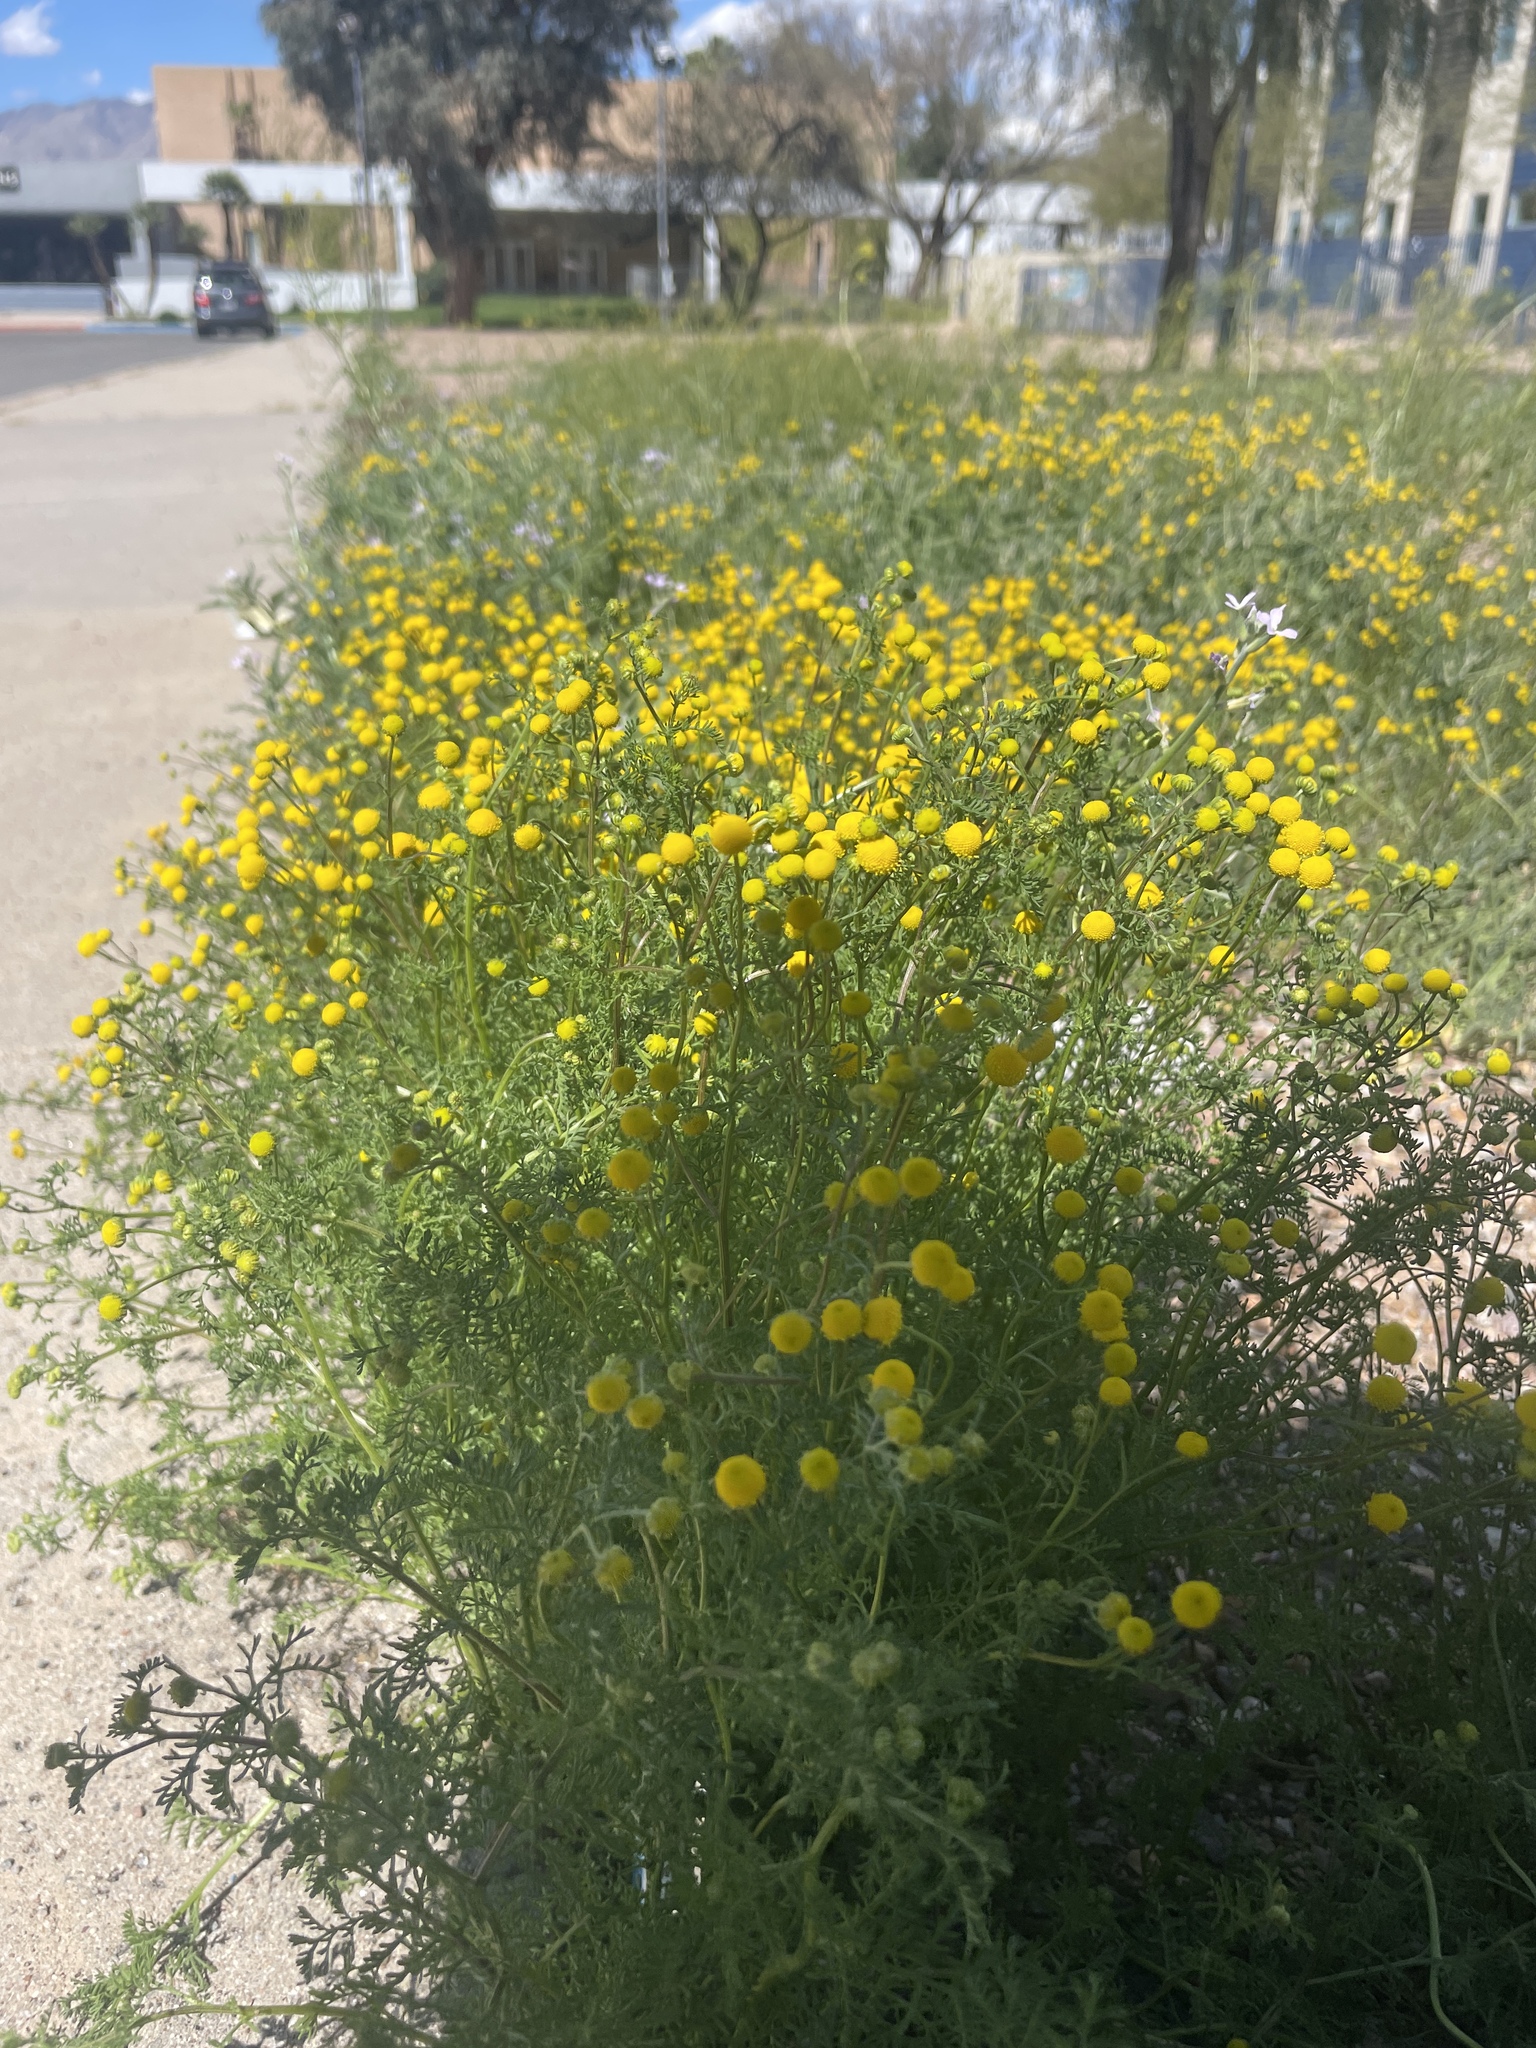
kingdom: Plantae
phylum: Tracheophyta
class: Magnoliopsida
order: Asterales
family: Asteraceae
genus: Oncosiphon
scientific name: Oncosiphon pilulifer
